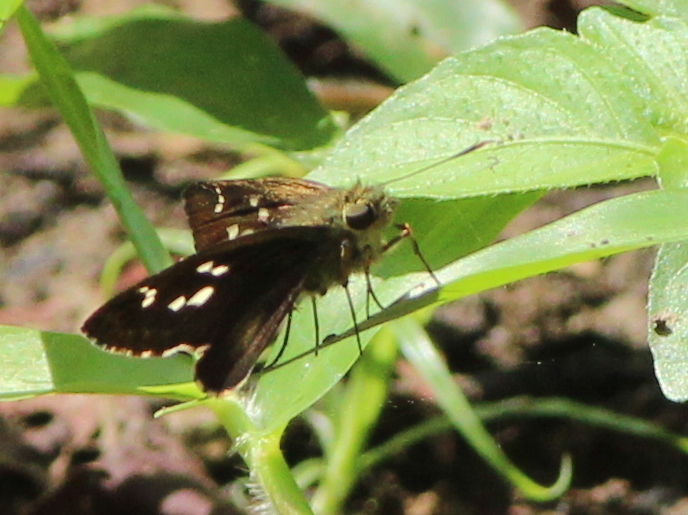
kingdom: Animalia
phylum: Arthropoda
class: Insecta
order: Lepidoptera
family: Hesperiidae
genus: Halpe
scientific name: Halpe porus
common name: Moore's ace
